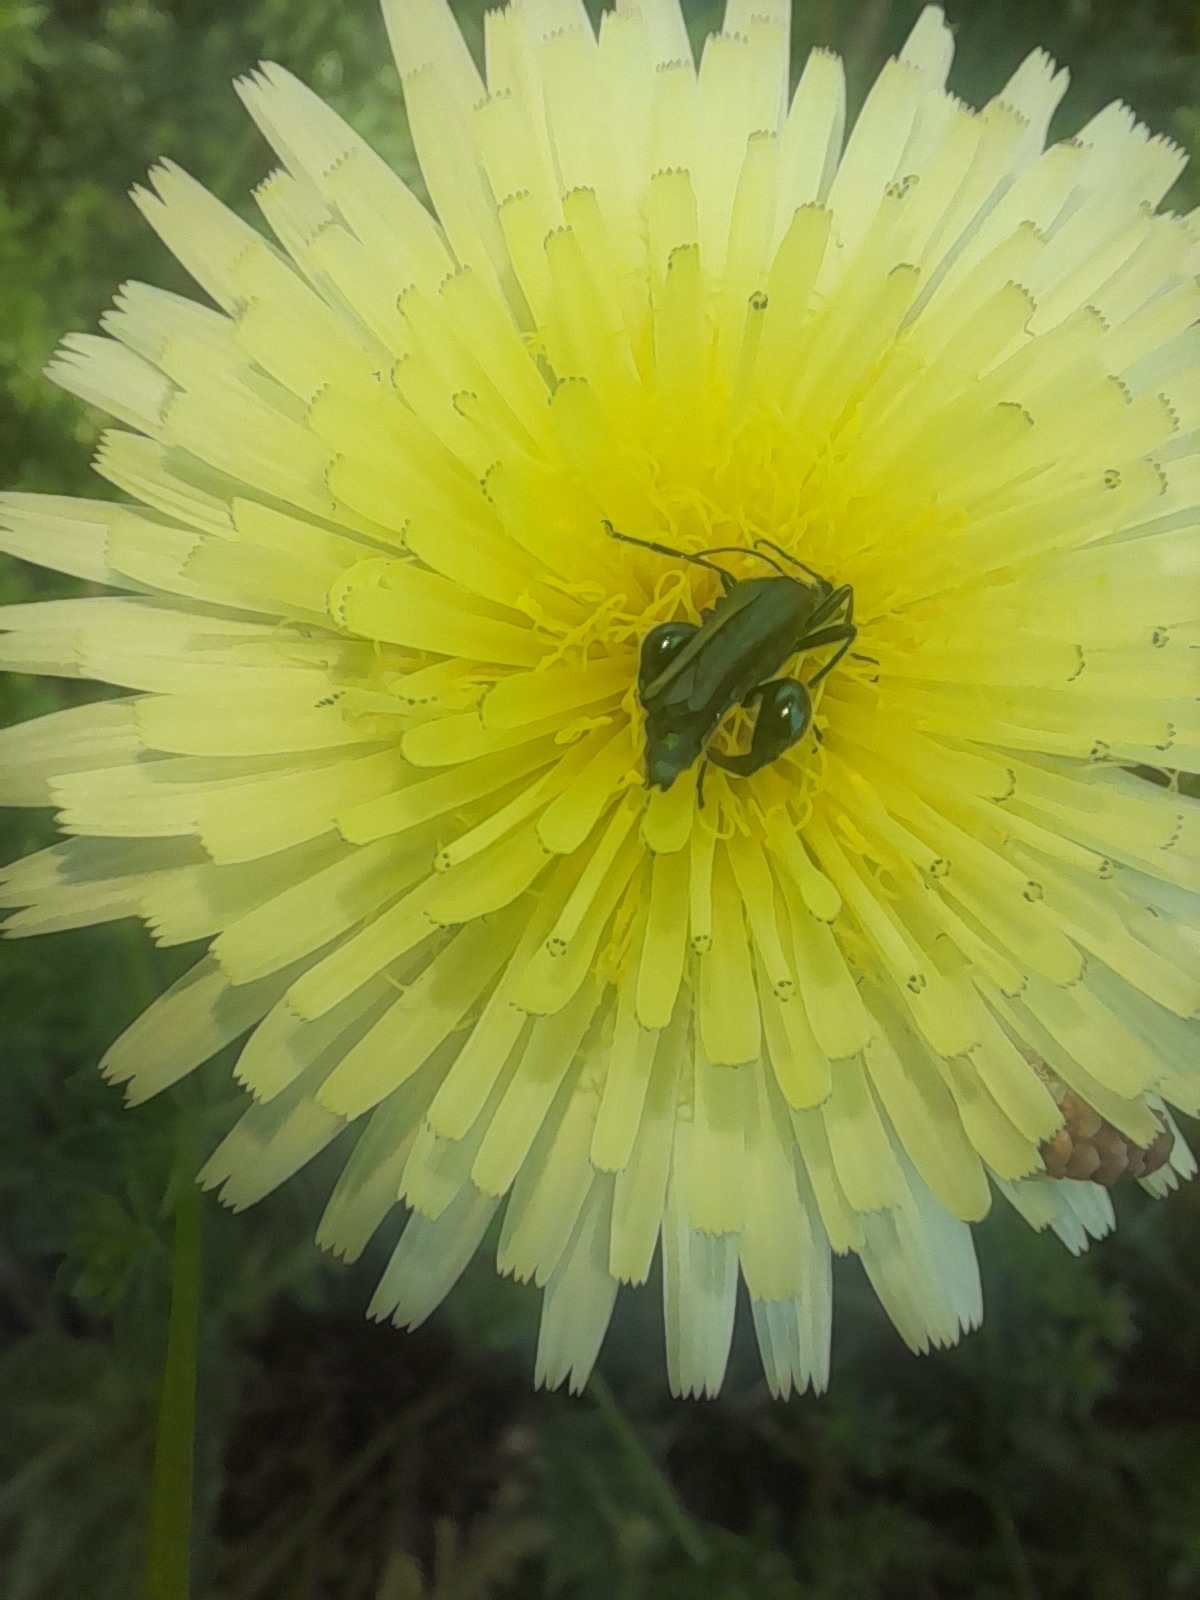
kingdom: Plantae
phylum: Tracheophyta
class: Magnoliopsida
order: Asterales
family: Asteraceae
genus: Urospermum
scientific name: Urospermum dalechampii
